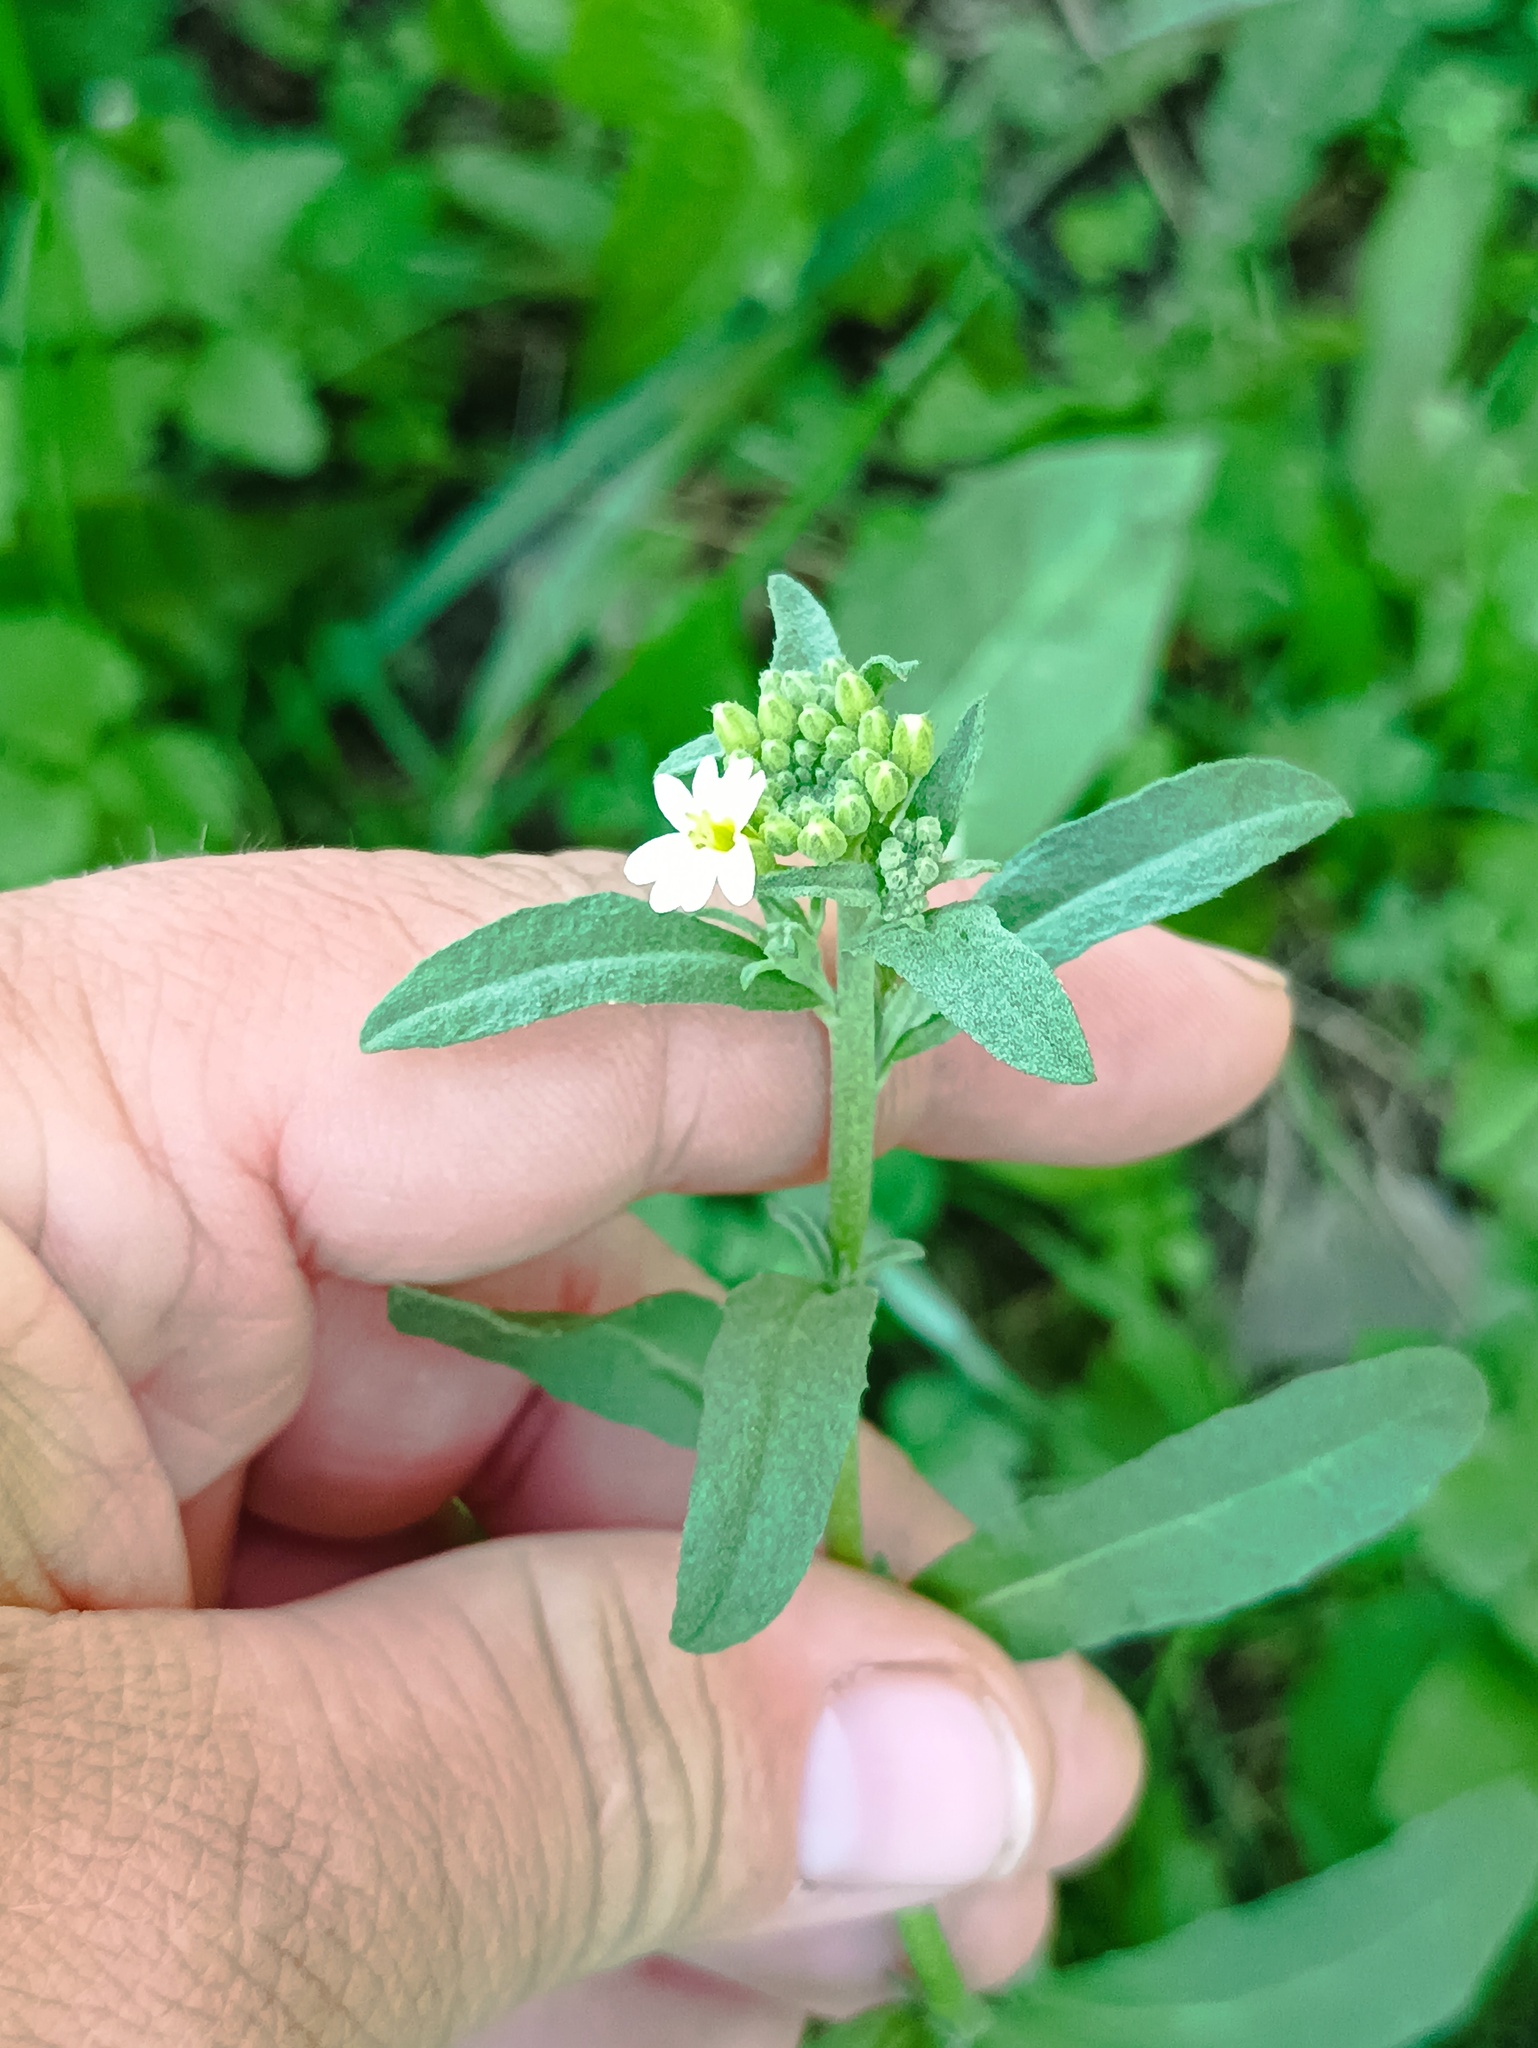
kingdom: Plantae
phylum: Tracheophyta
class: Magnoliopsida
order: Brassicales
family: Brassicaceae
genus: Berteroa
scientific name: Berteroa incana
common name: Hoary alison
